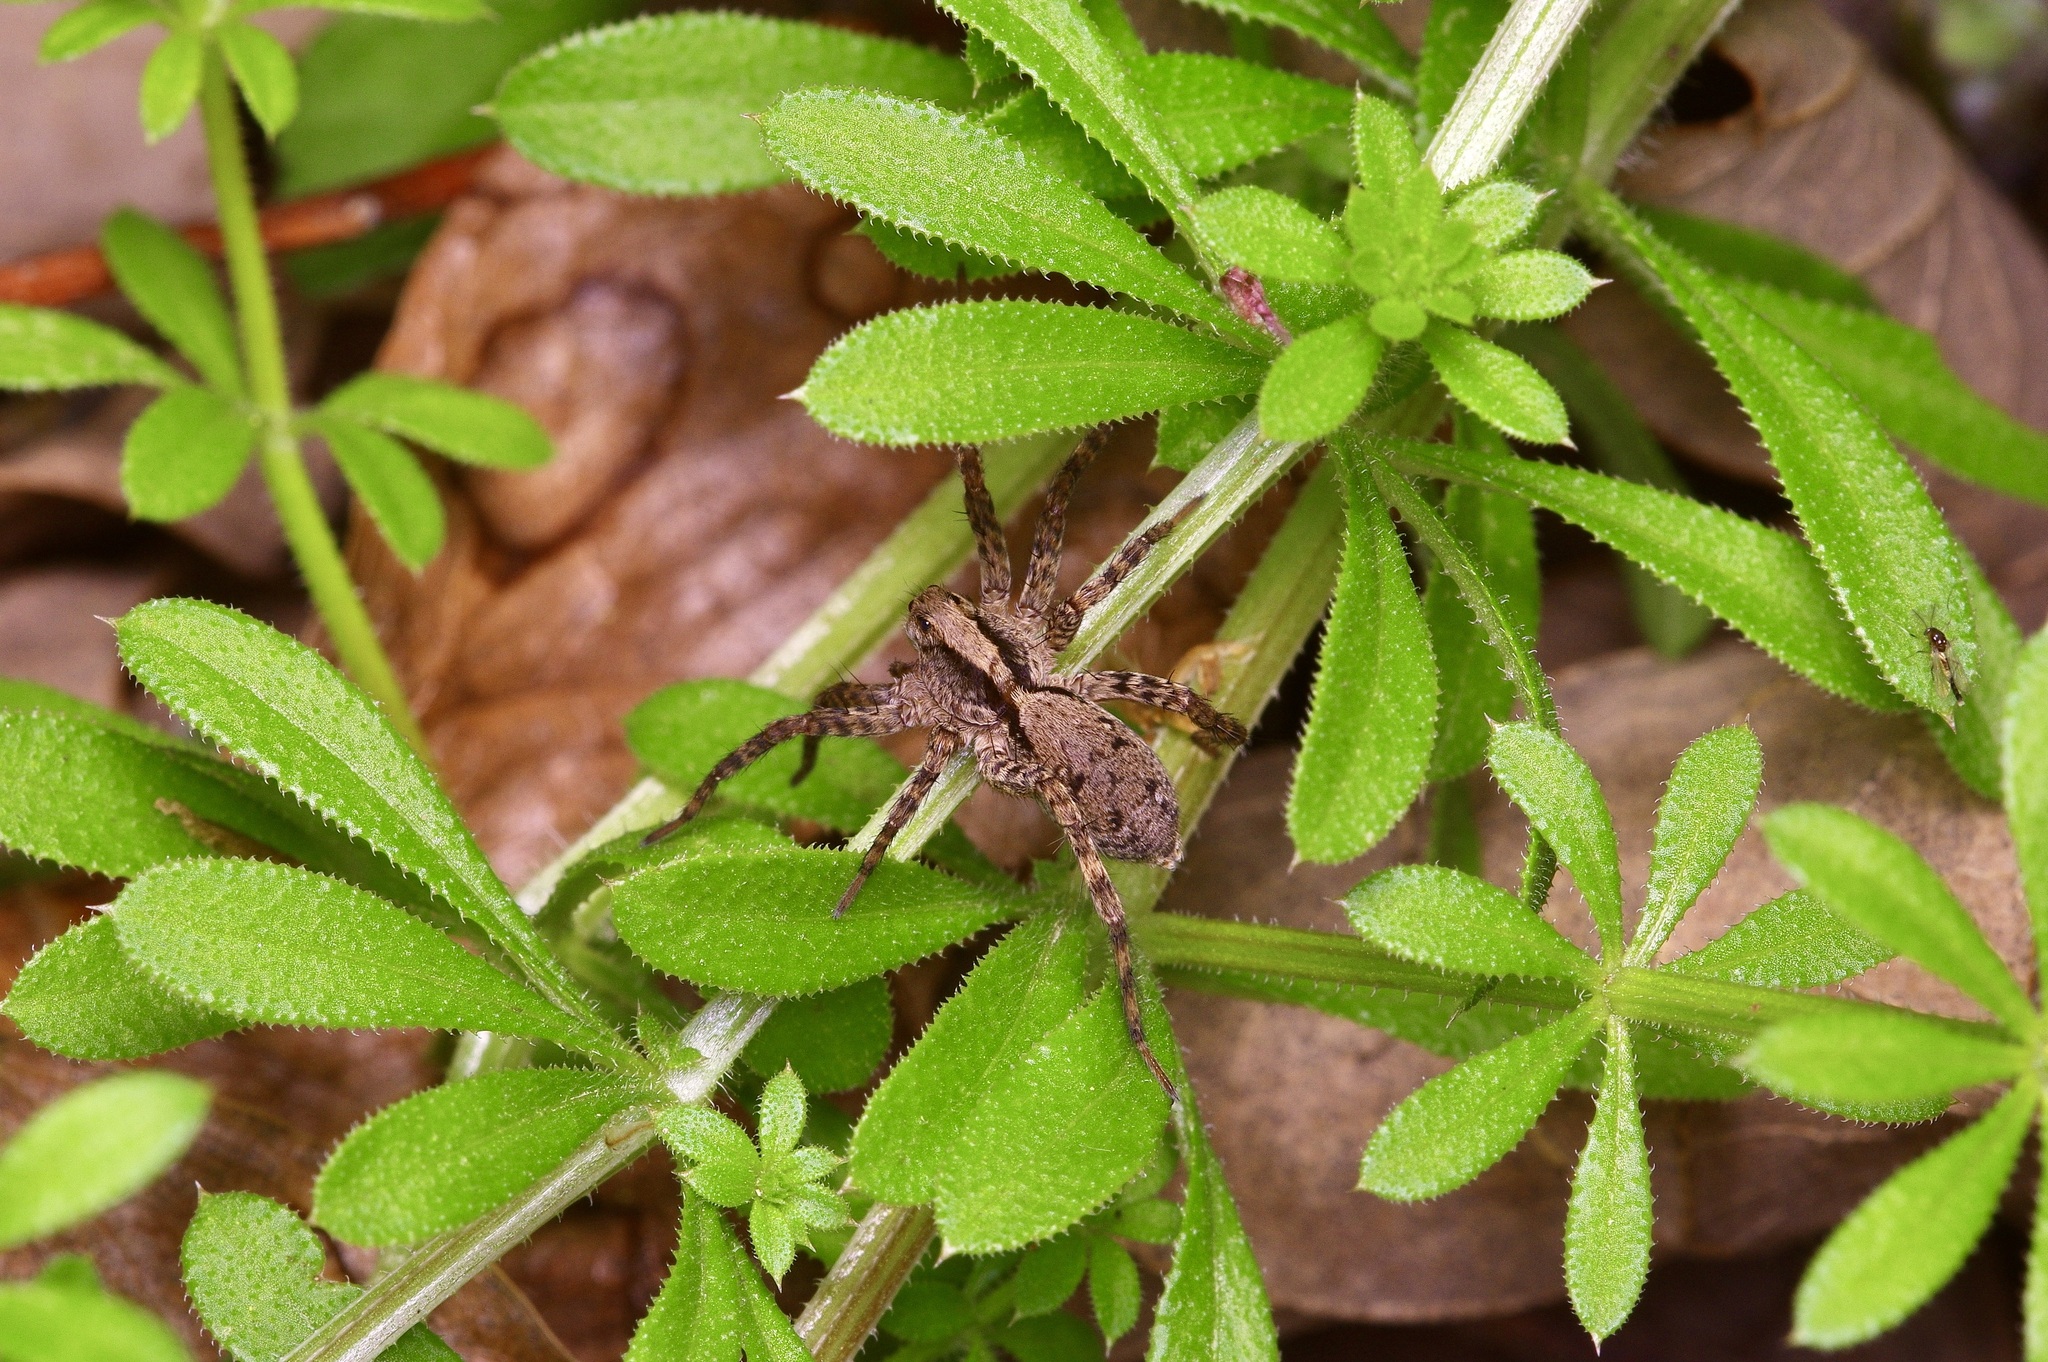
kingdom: Animalia
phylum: Arthropoda
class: Arachnida
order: Araneae
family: Lycosidae
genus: Schizocosa
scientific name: Schizocosa retrorsa
